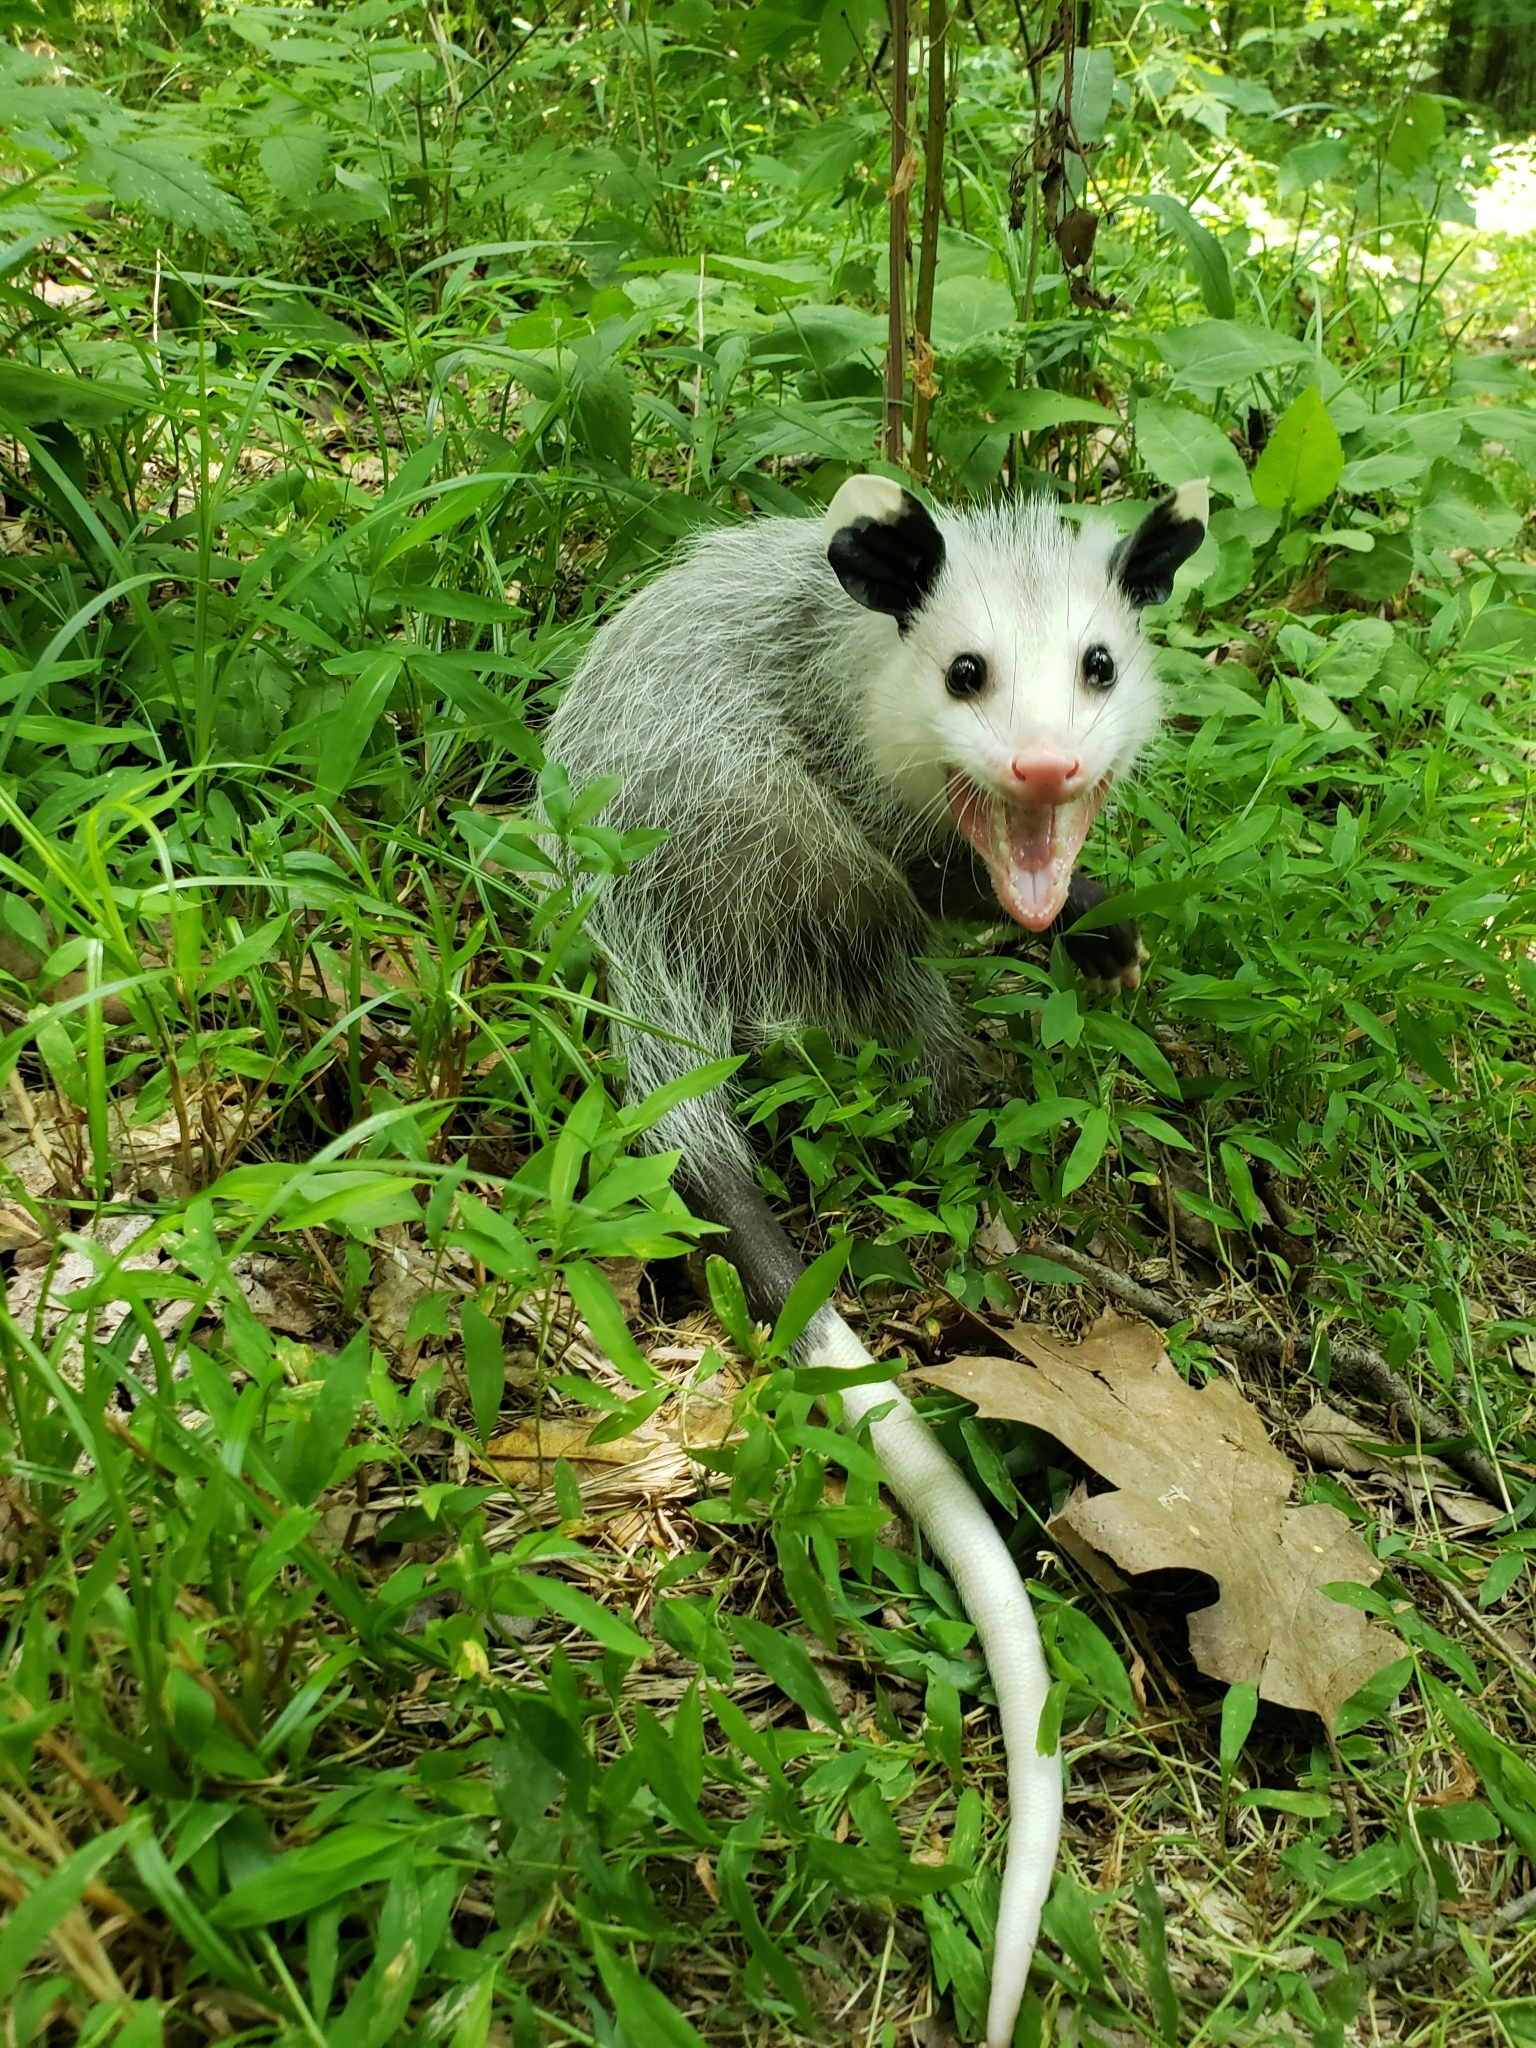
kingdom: Animalia
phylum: Chordata
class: Mammalia
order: Didelphimorphia
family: Didelphidae
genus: Didelphis
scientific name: Didelphis virginiana
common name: Virginia opossum
